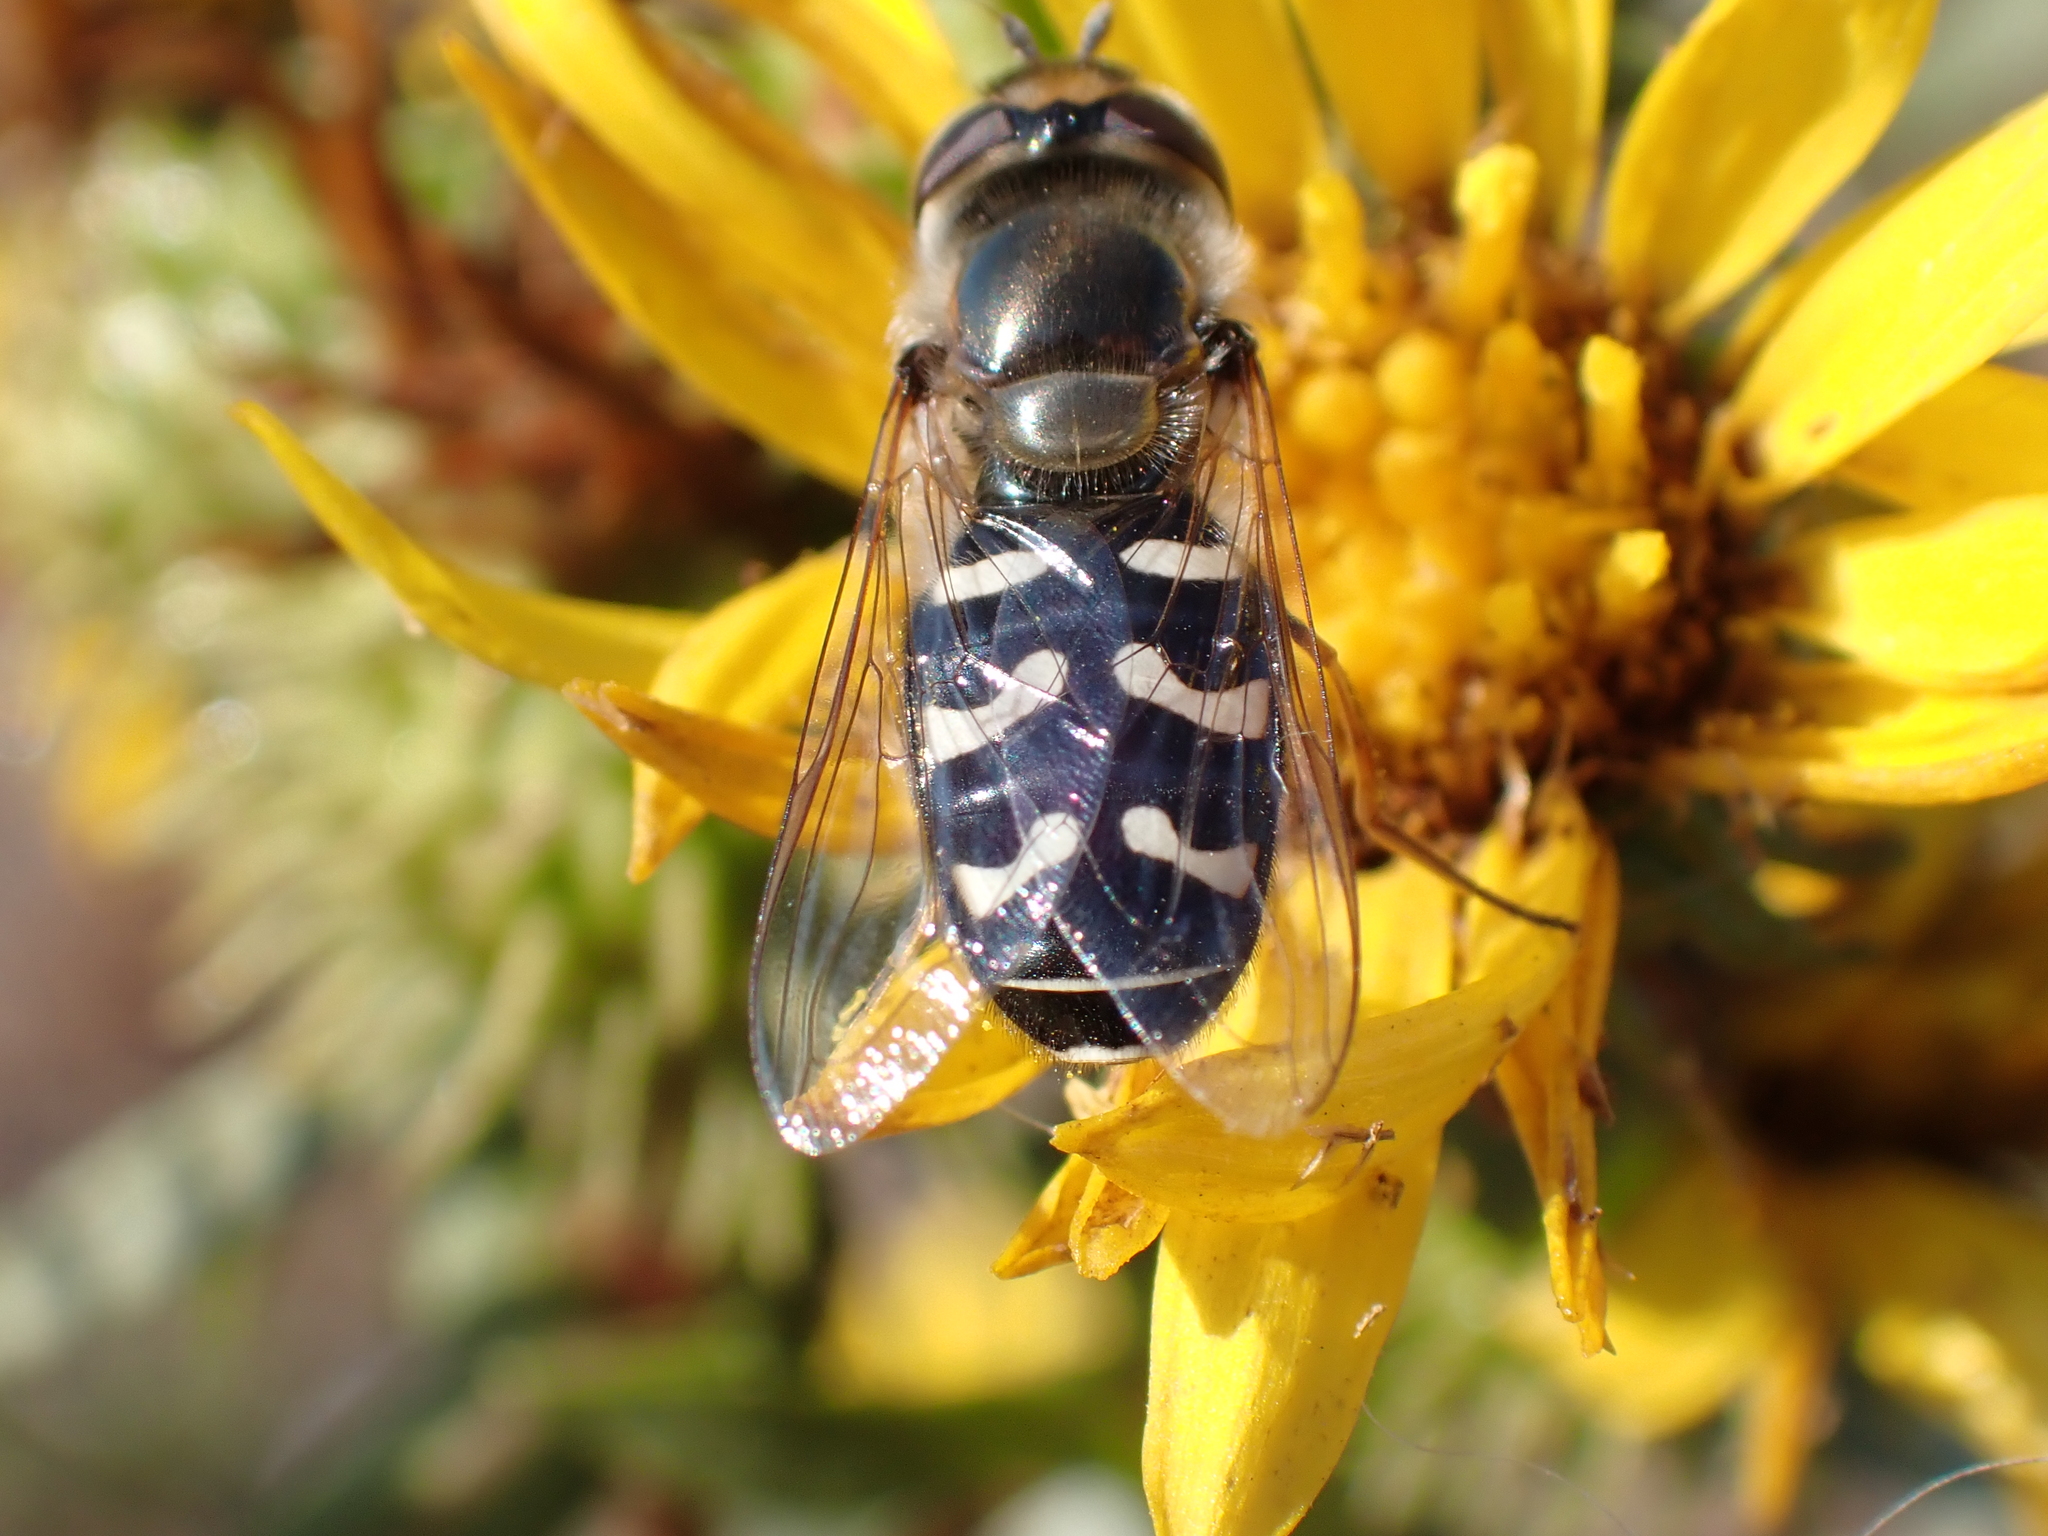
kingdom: Animalia
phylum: Arthropoda
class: Insecta
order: Diptera
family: Syrphidae
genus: Scaeva
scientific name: Scaeva affinis
